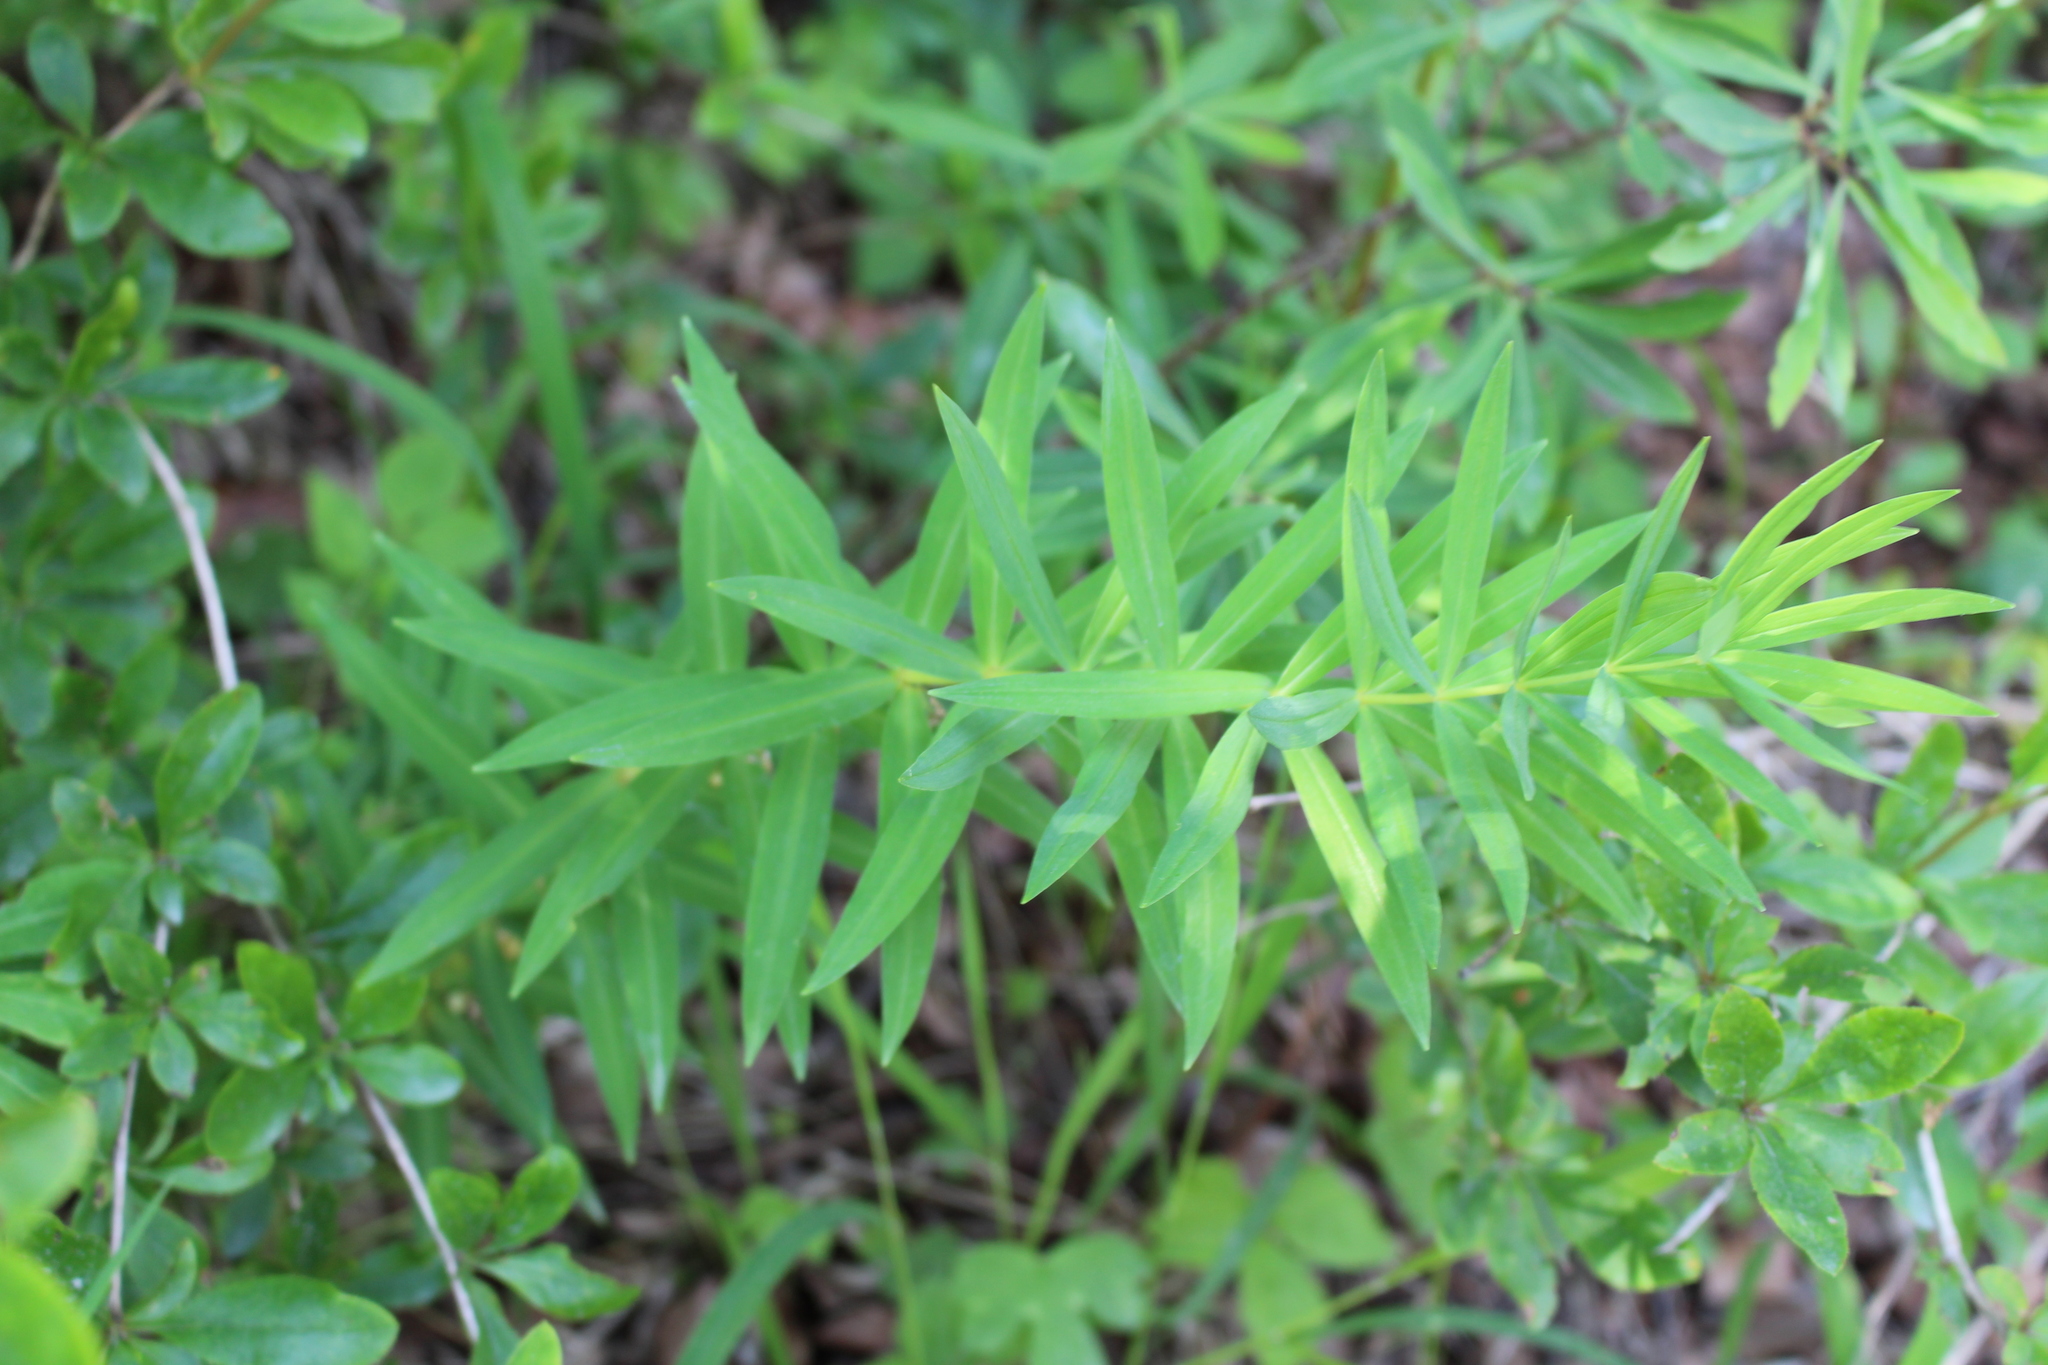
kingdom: Plantae
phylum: Tracheophyta
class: Liliopsida
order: Asparagales
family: Asparagaceae
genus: Polygonatum
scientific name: Polygonatum verticillatum
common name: Whorled solomon's-seal
